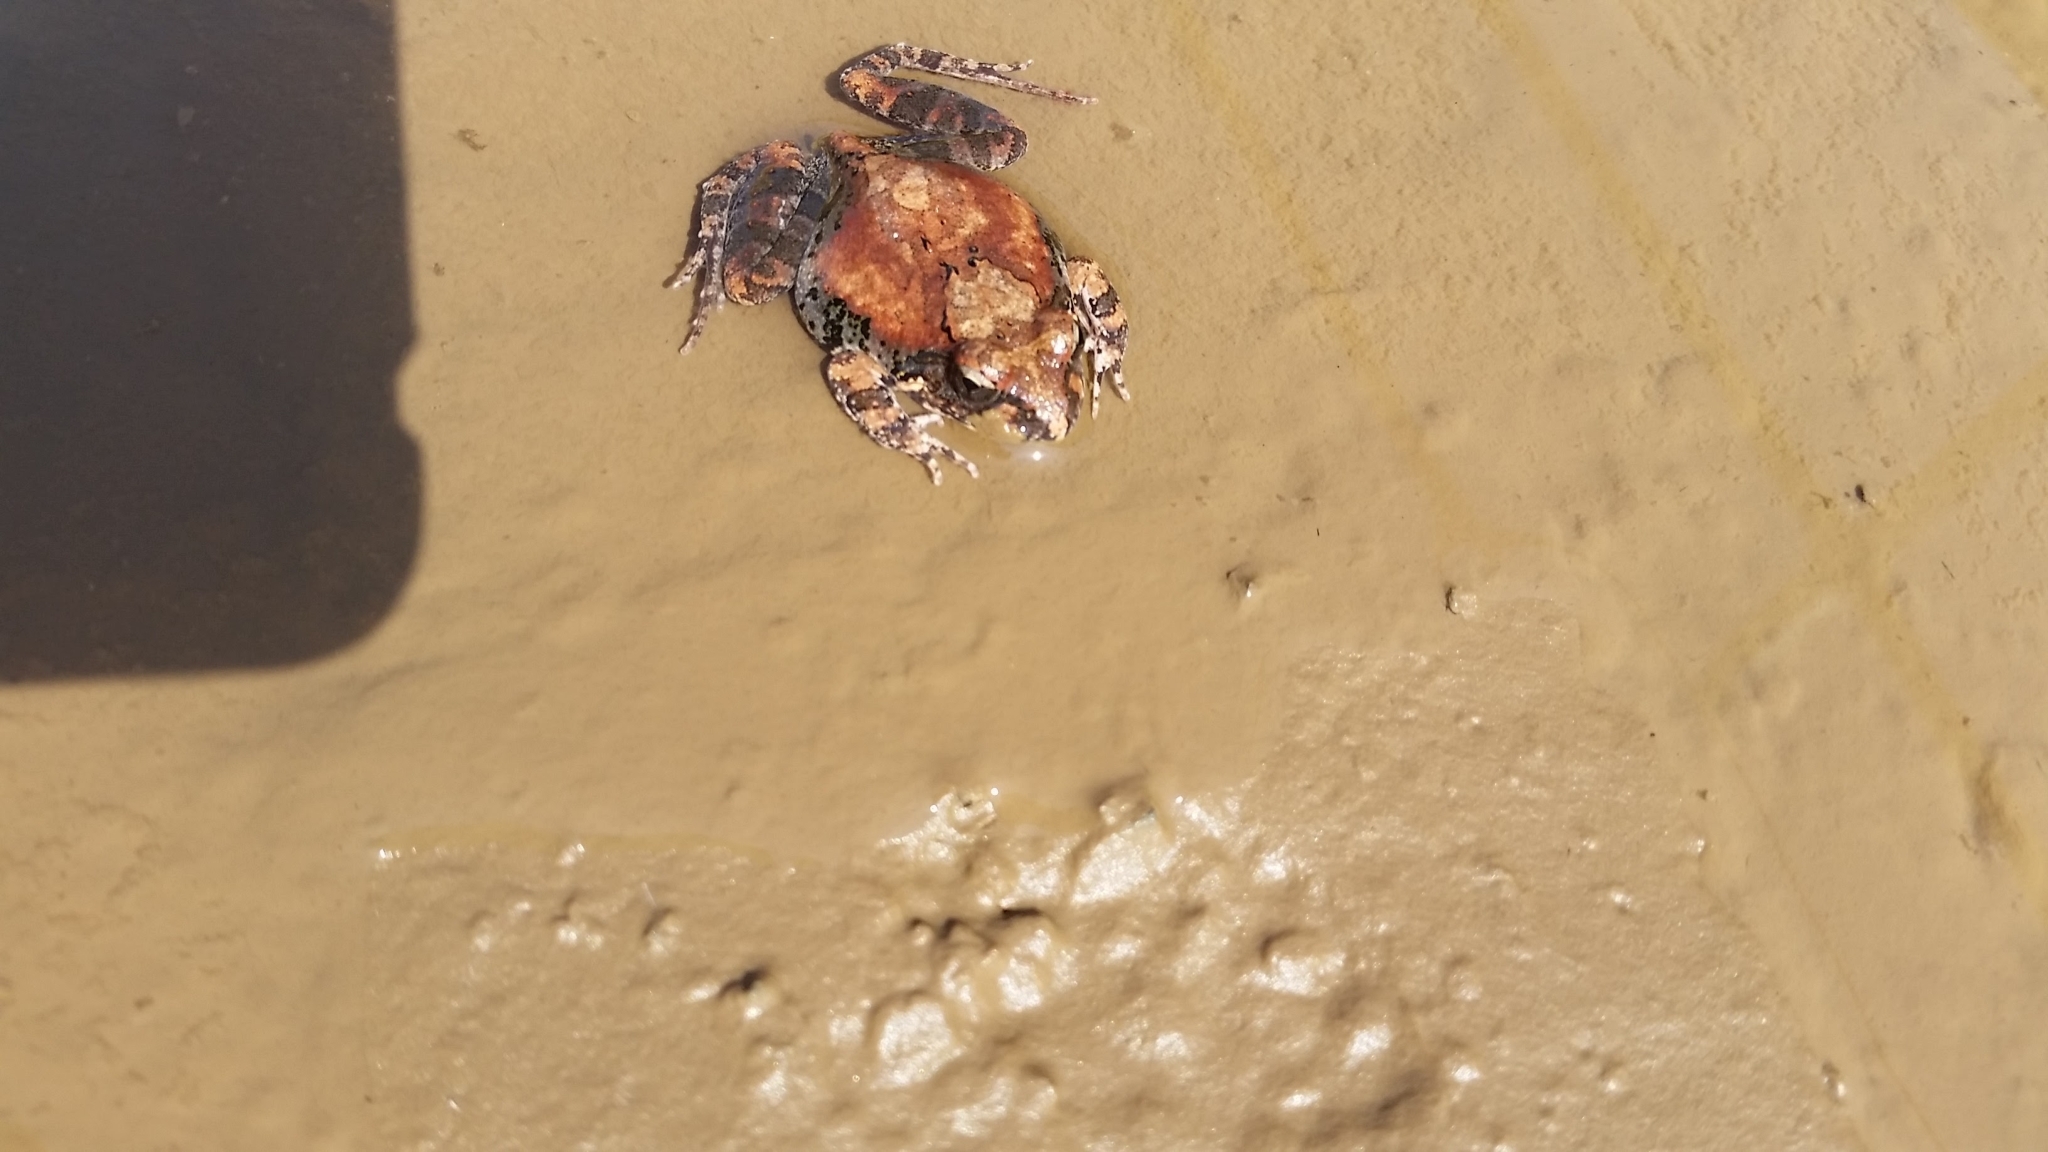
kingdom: Animalia
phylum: Chordata
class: Amphibia
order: Anura
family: Pyxicephalidae
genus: Tomopterna
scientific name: Tomopterna natalensis
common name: Natal sand frog
